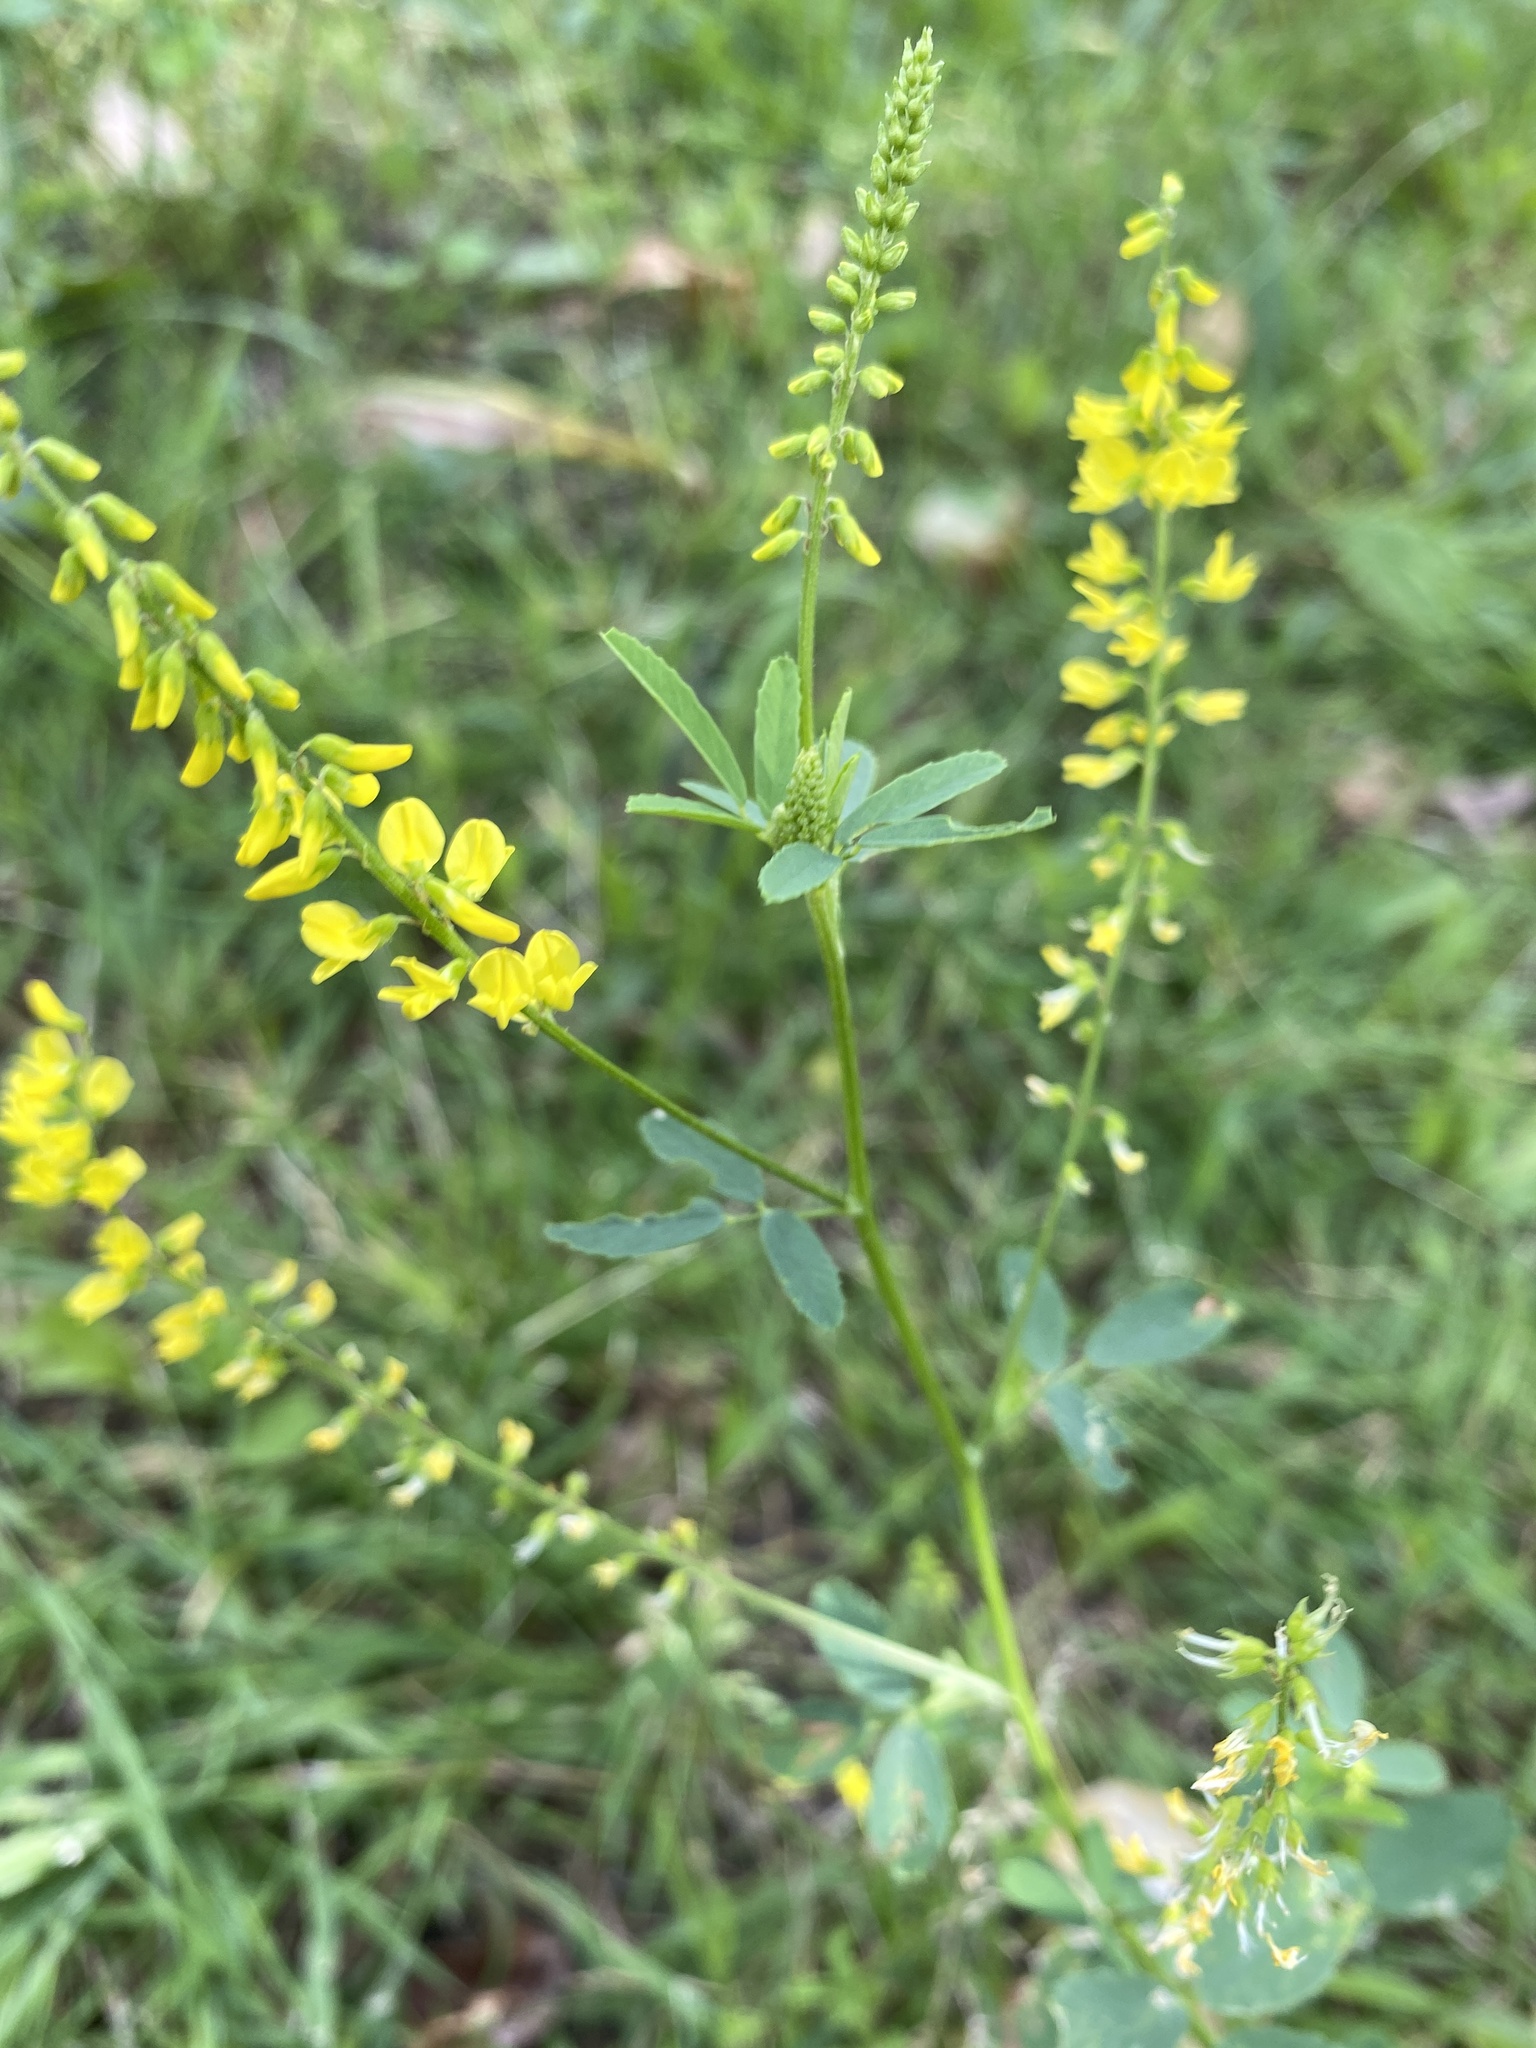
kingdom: Plantae
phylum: Tracheophyta
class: Magnoliopsida
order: Fabales
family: Fabaceae
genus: Melilotus
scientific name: Melilotus officinalis
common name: Sweetclover
